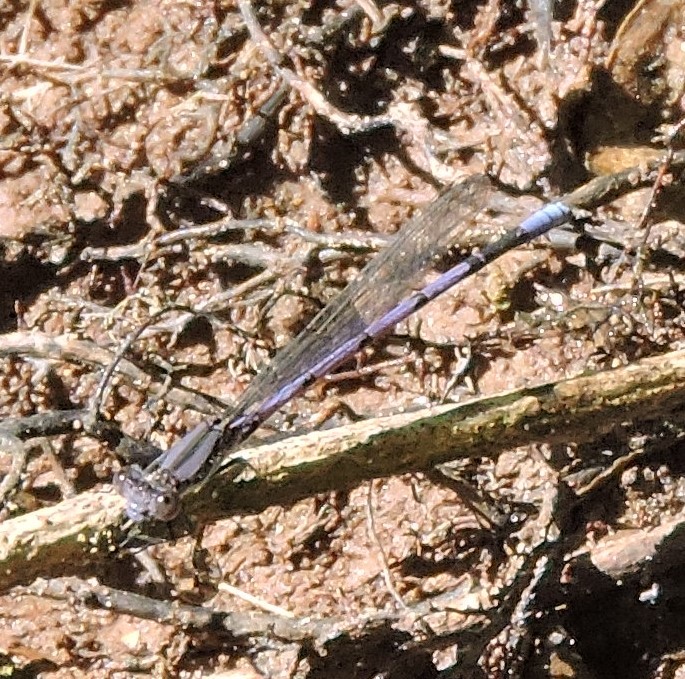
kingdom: Animalia
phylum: Arthropoda
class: Insecta
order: Odonata
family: Coenagrionidae
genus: Argia
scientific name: Argia fumipennis
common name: Variable dancer
